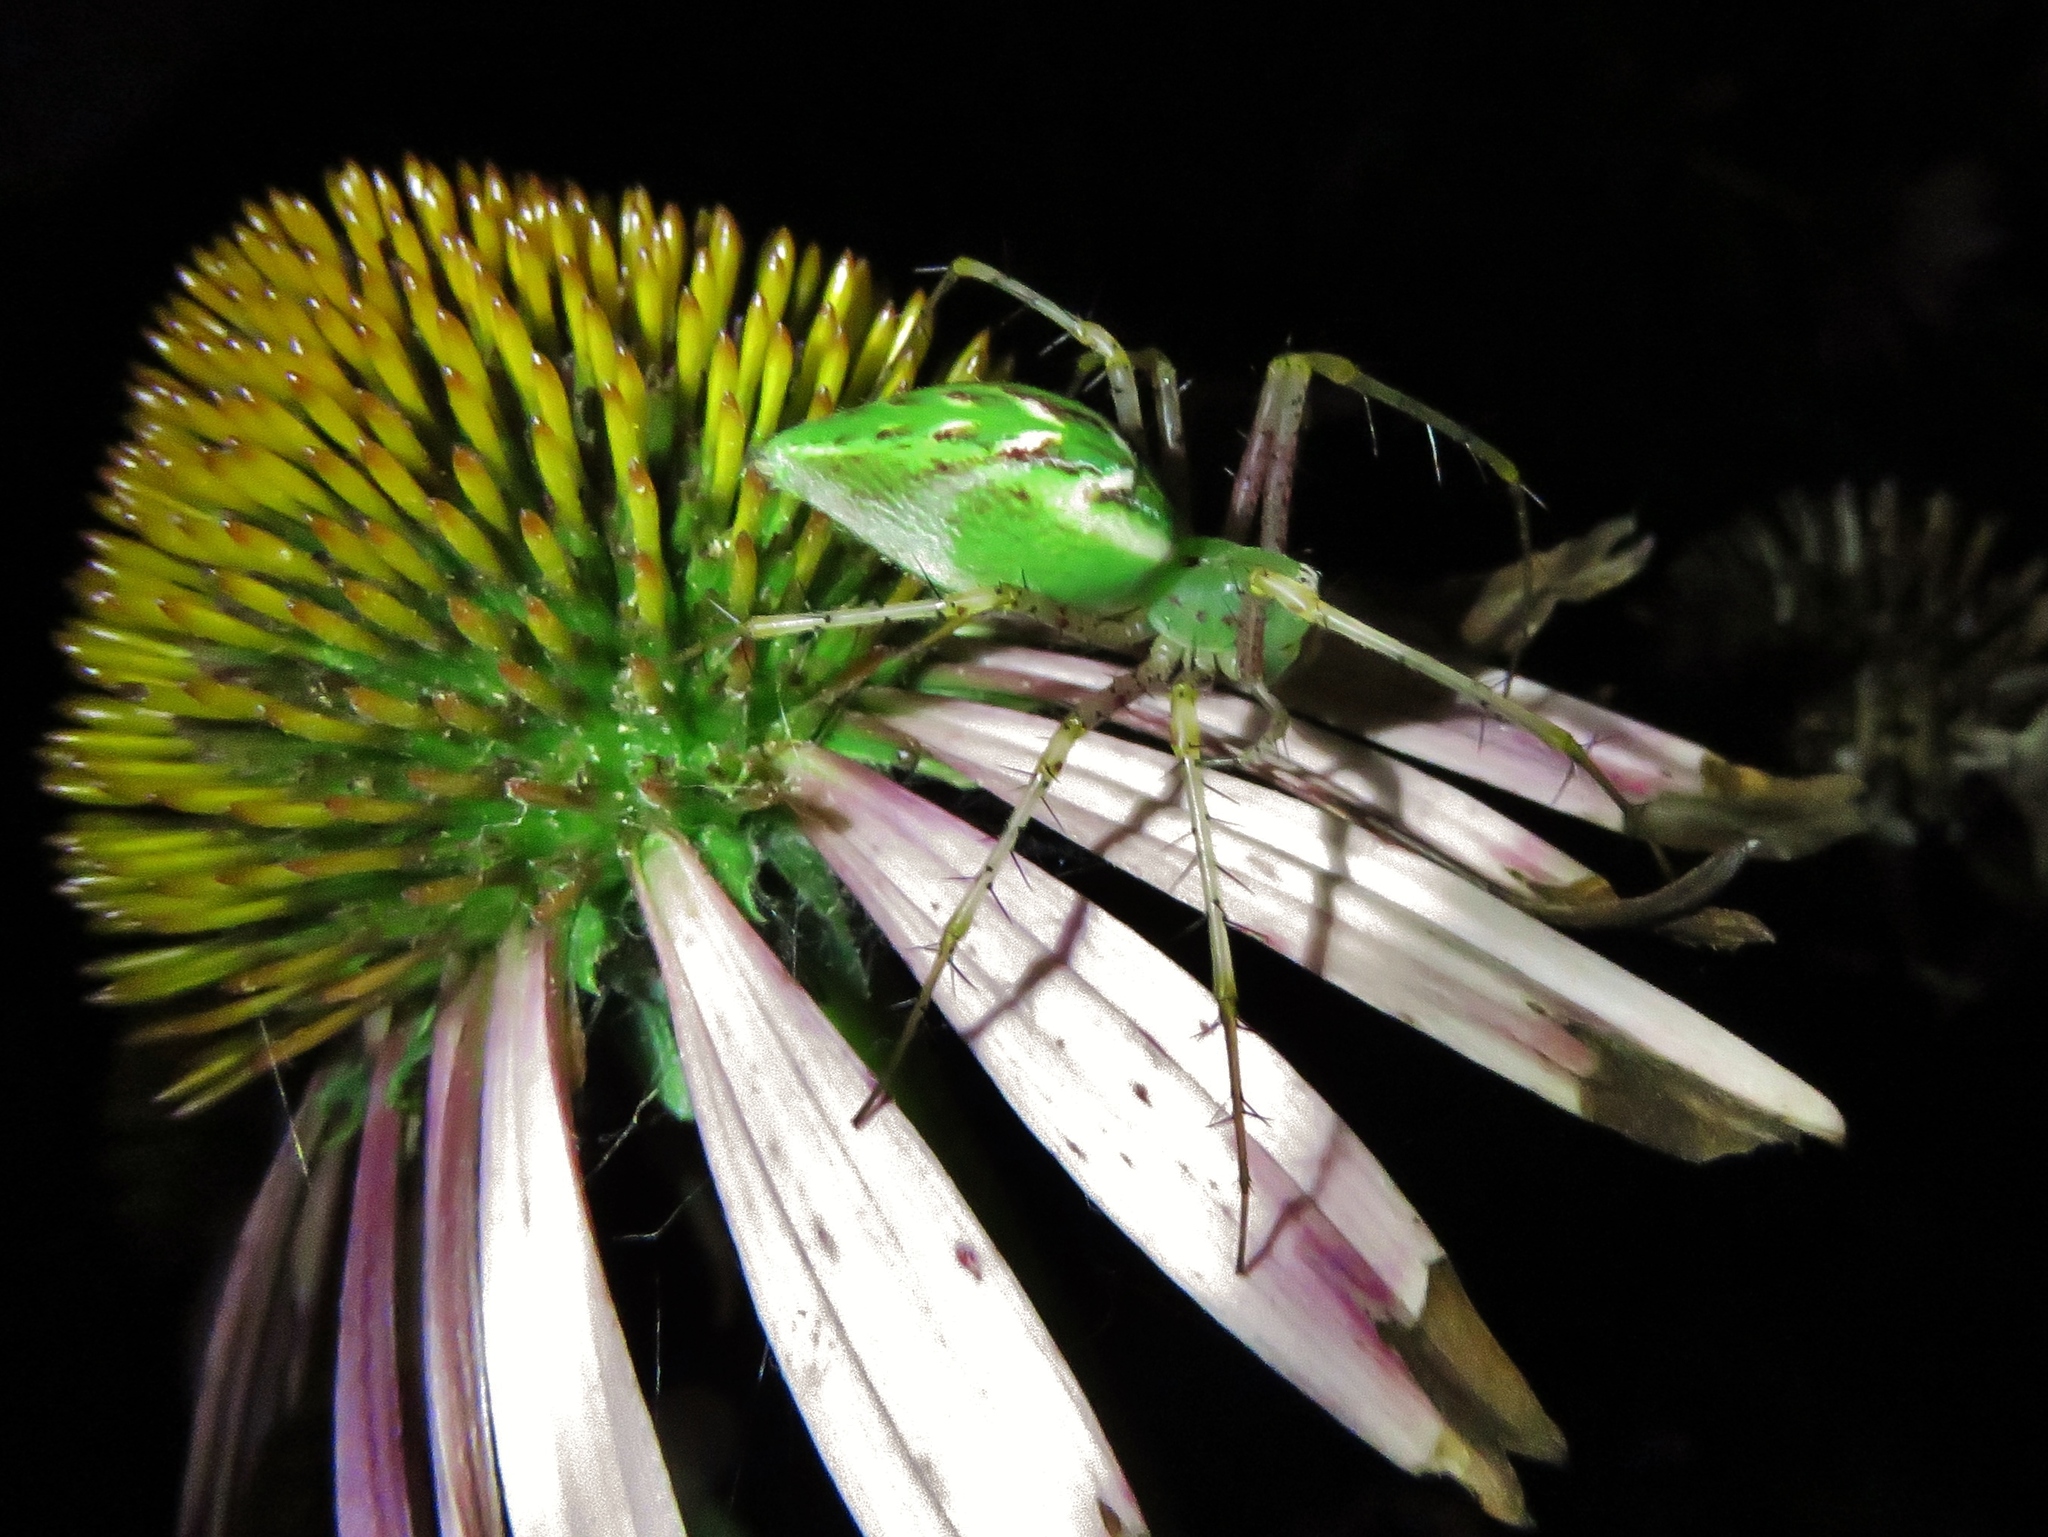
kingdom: Animalia
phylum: Arthropoda
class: Arachnida
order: Araneae
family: Oxyopidae
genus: Peucetia
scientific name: Peucetia viridans
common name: Lynx spiders
